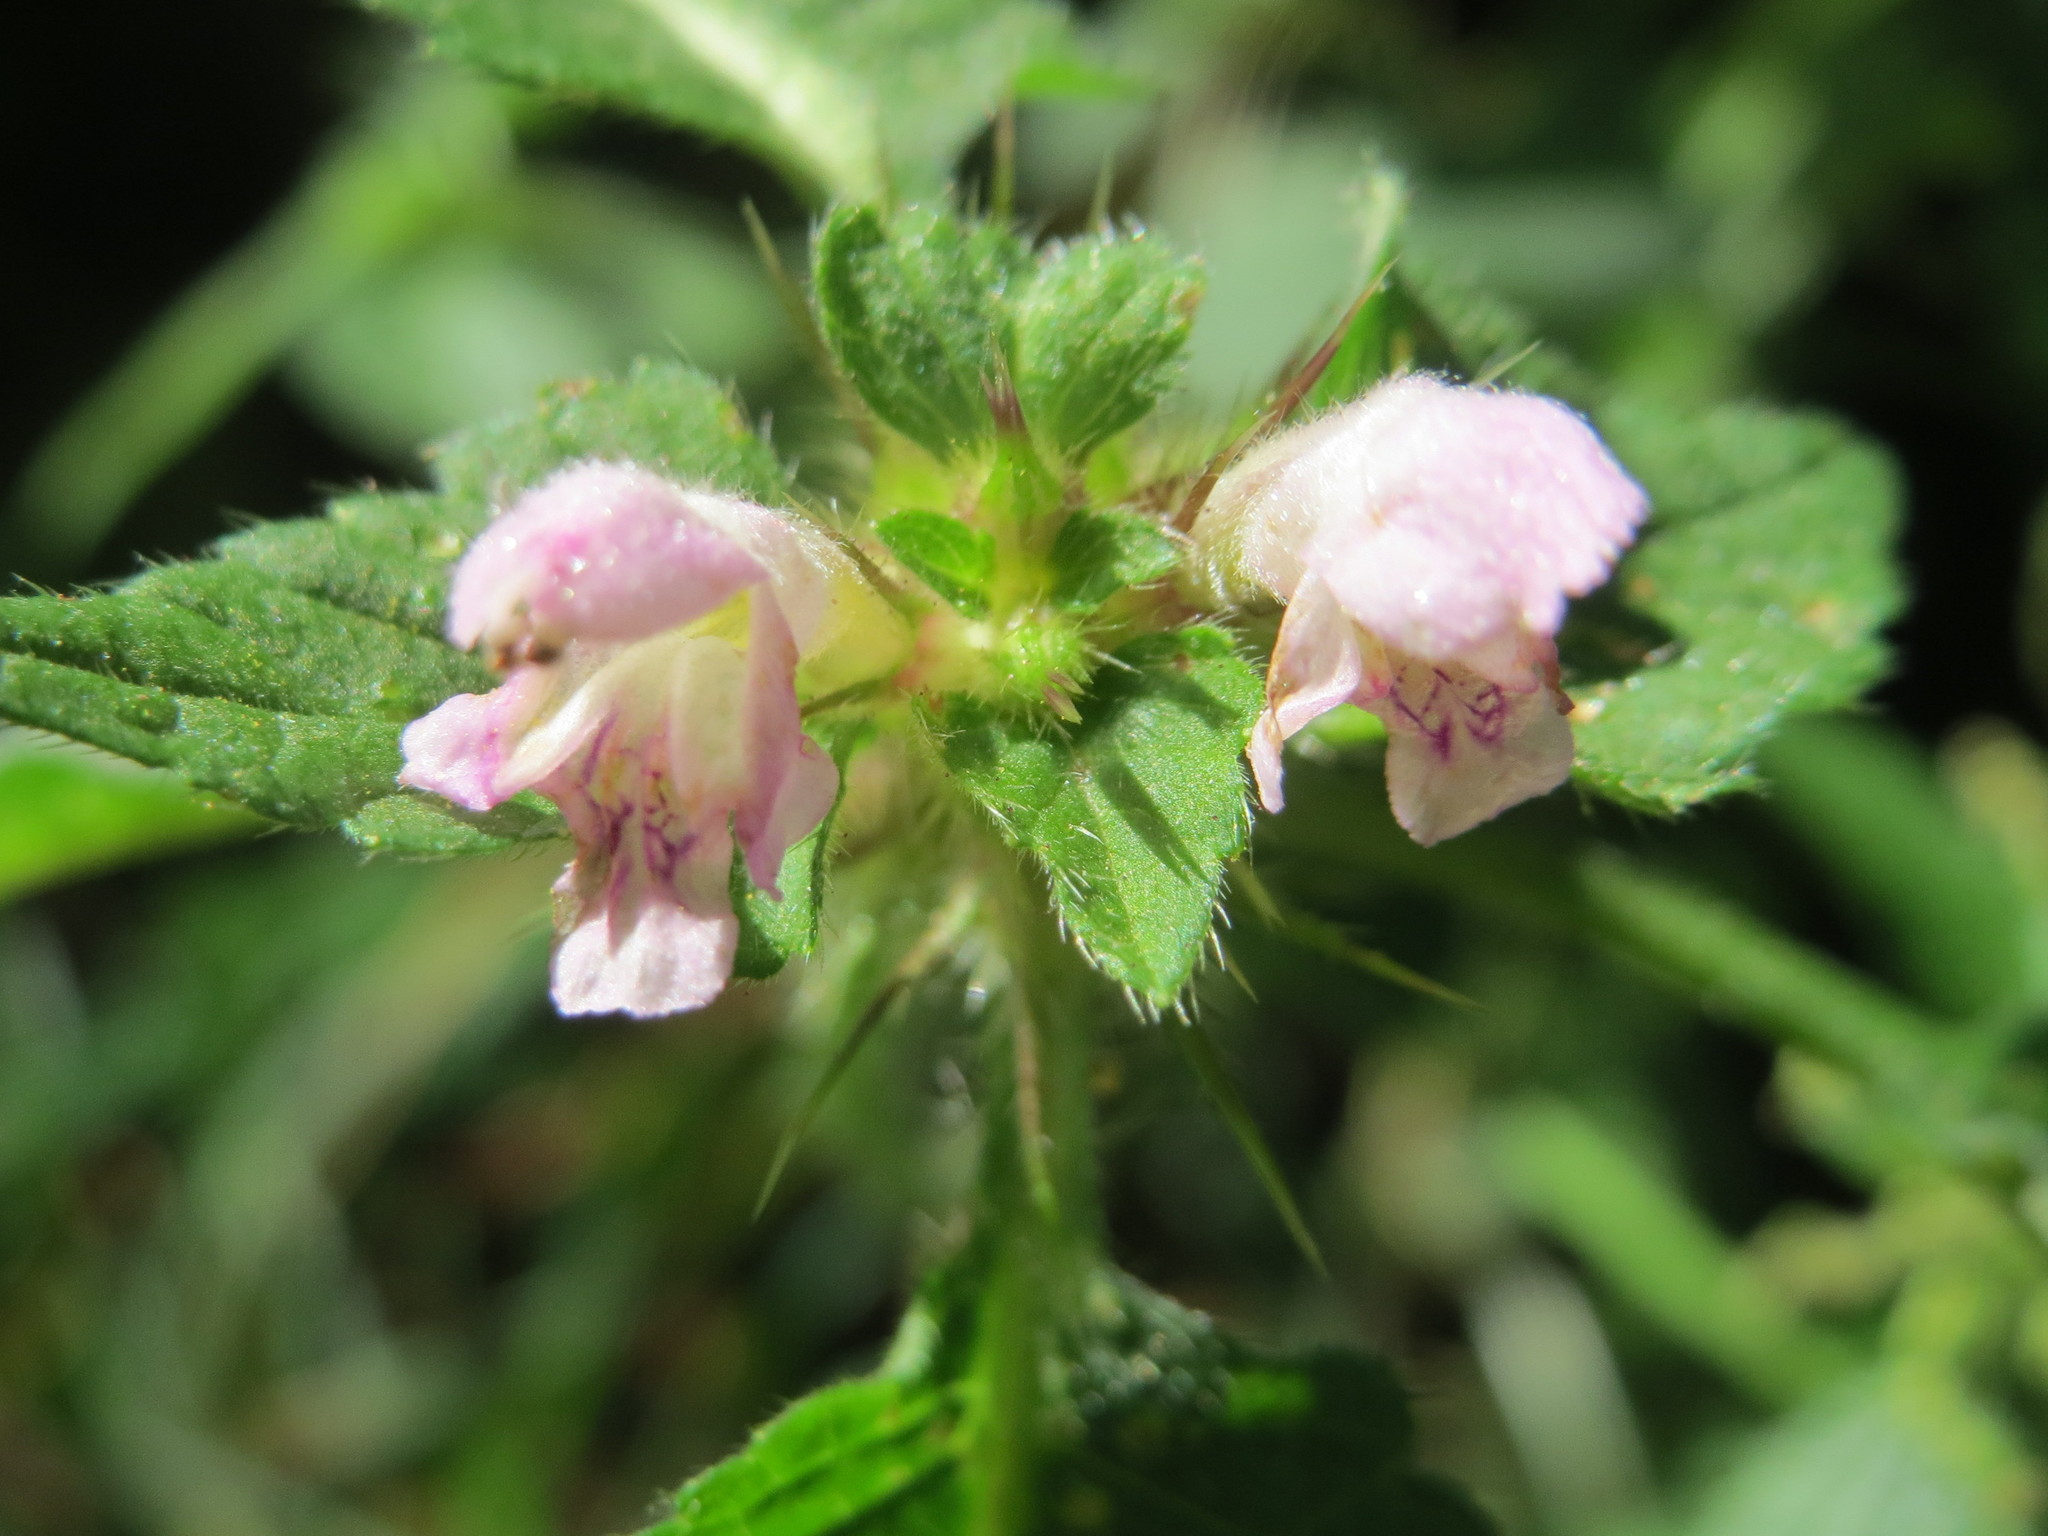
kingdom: Plantae
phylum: Tracheophyta
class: Magnoliopsida
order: Lamiales
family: Lamiaceae
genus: Galeopsis
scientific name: Galeopsis tetrahit
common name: Common hemp-nettle
